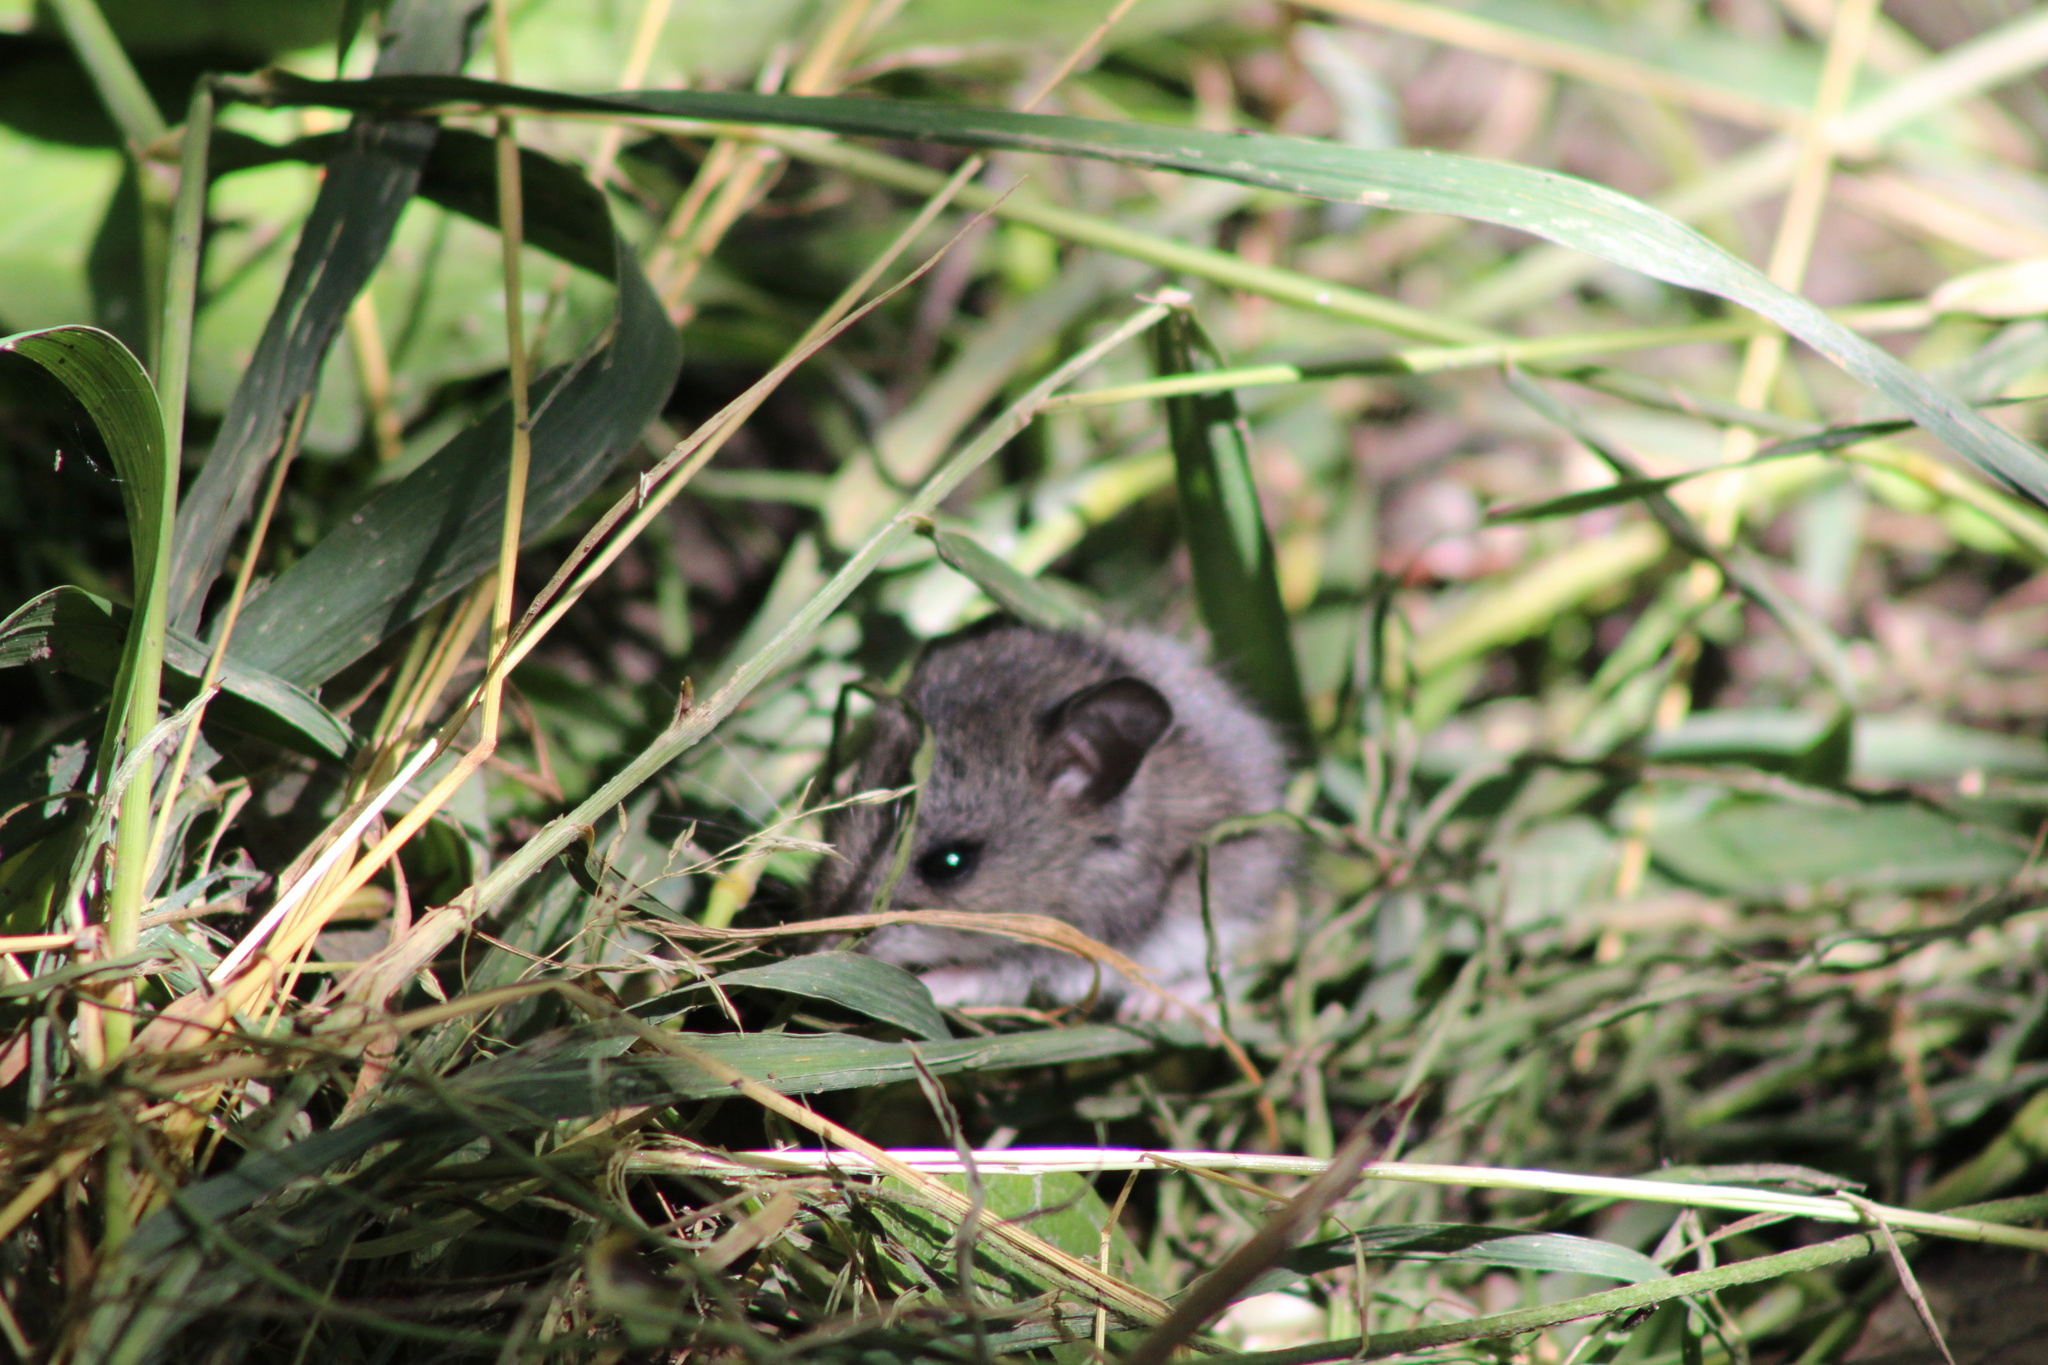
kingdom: Animalia
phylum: Chordata
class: Mammalia
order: Rodentia
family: Cricetidae
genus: Peromyscus
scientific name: Peromyscus maniculatus
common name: Deer mouse
